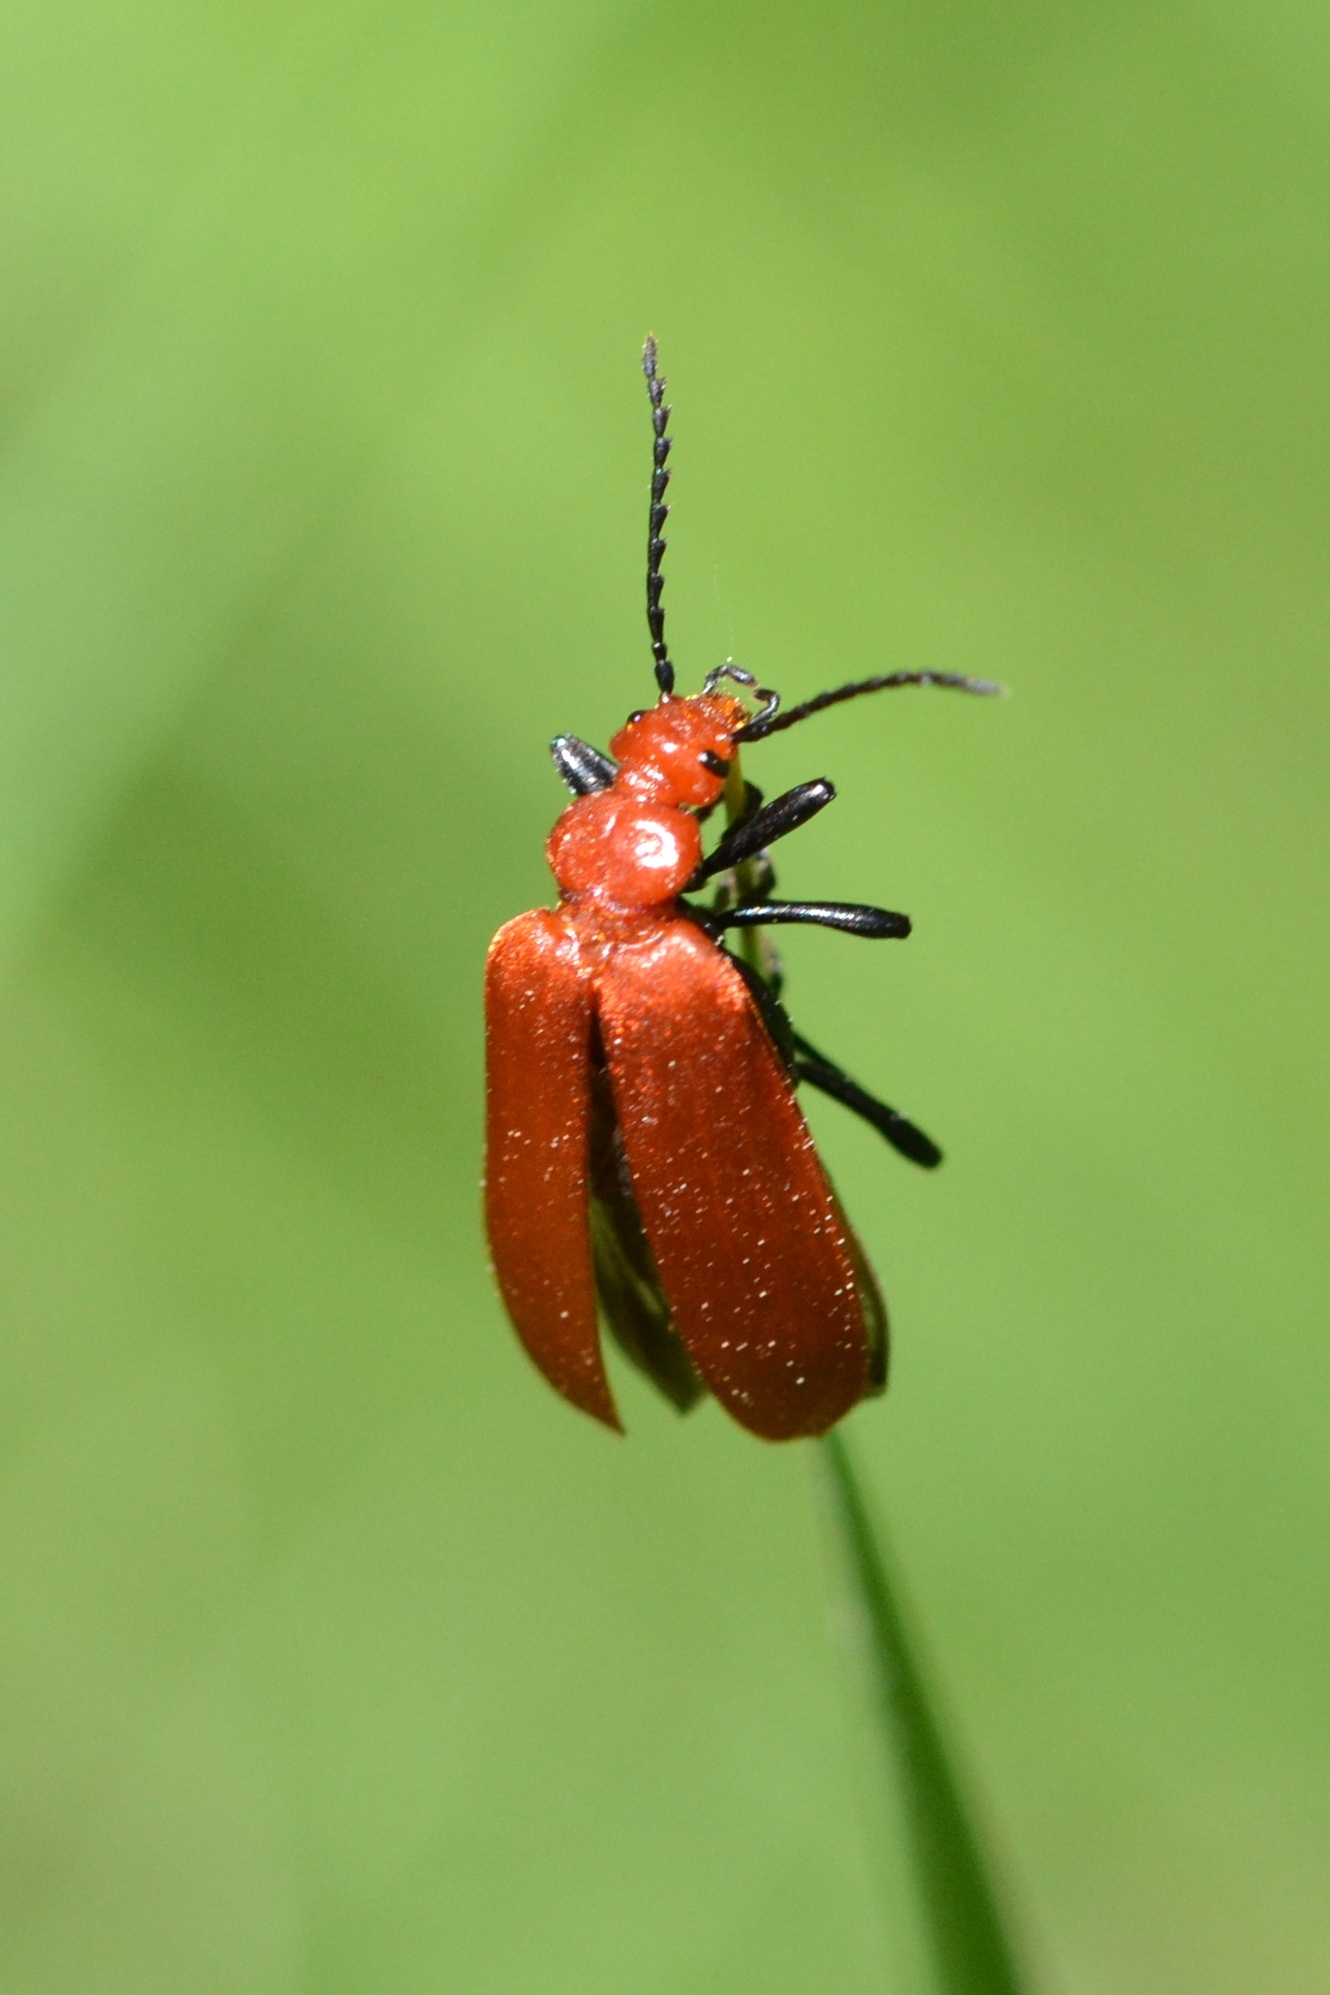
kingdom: Animalia
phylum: Arthropoda
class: Insecta
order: Coleoptera
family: Pyrochroidae
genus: Pyrochroa
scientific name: Pyrochroa serraticornis
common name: Red-headed cardinal beetle
